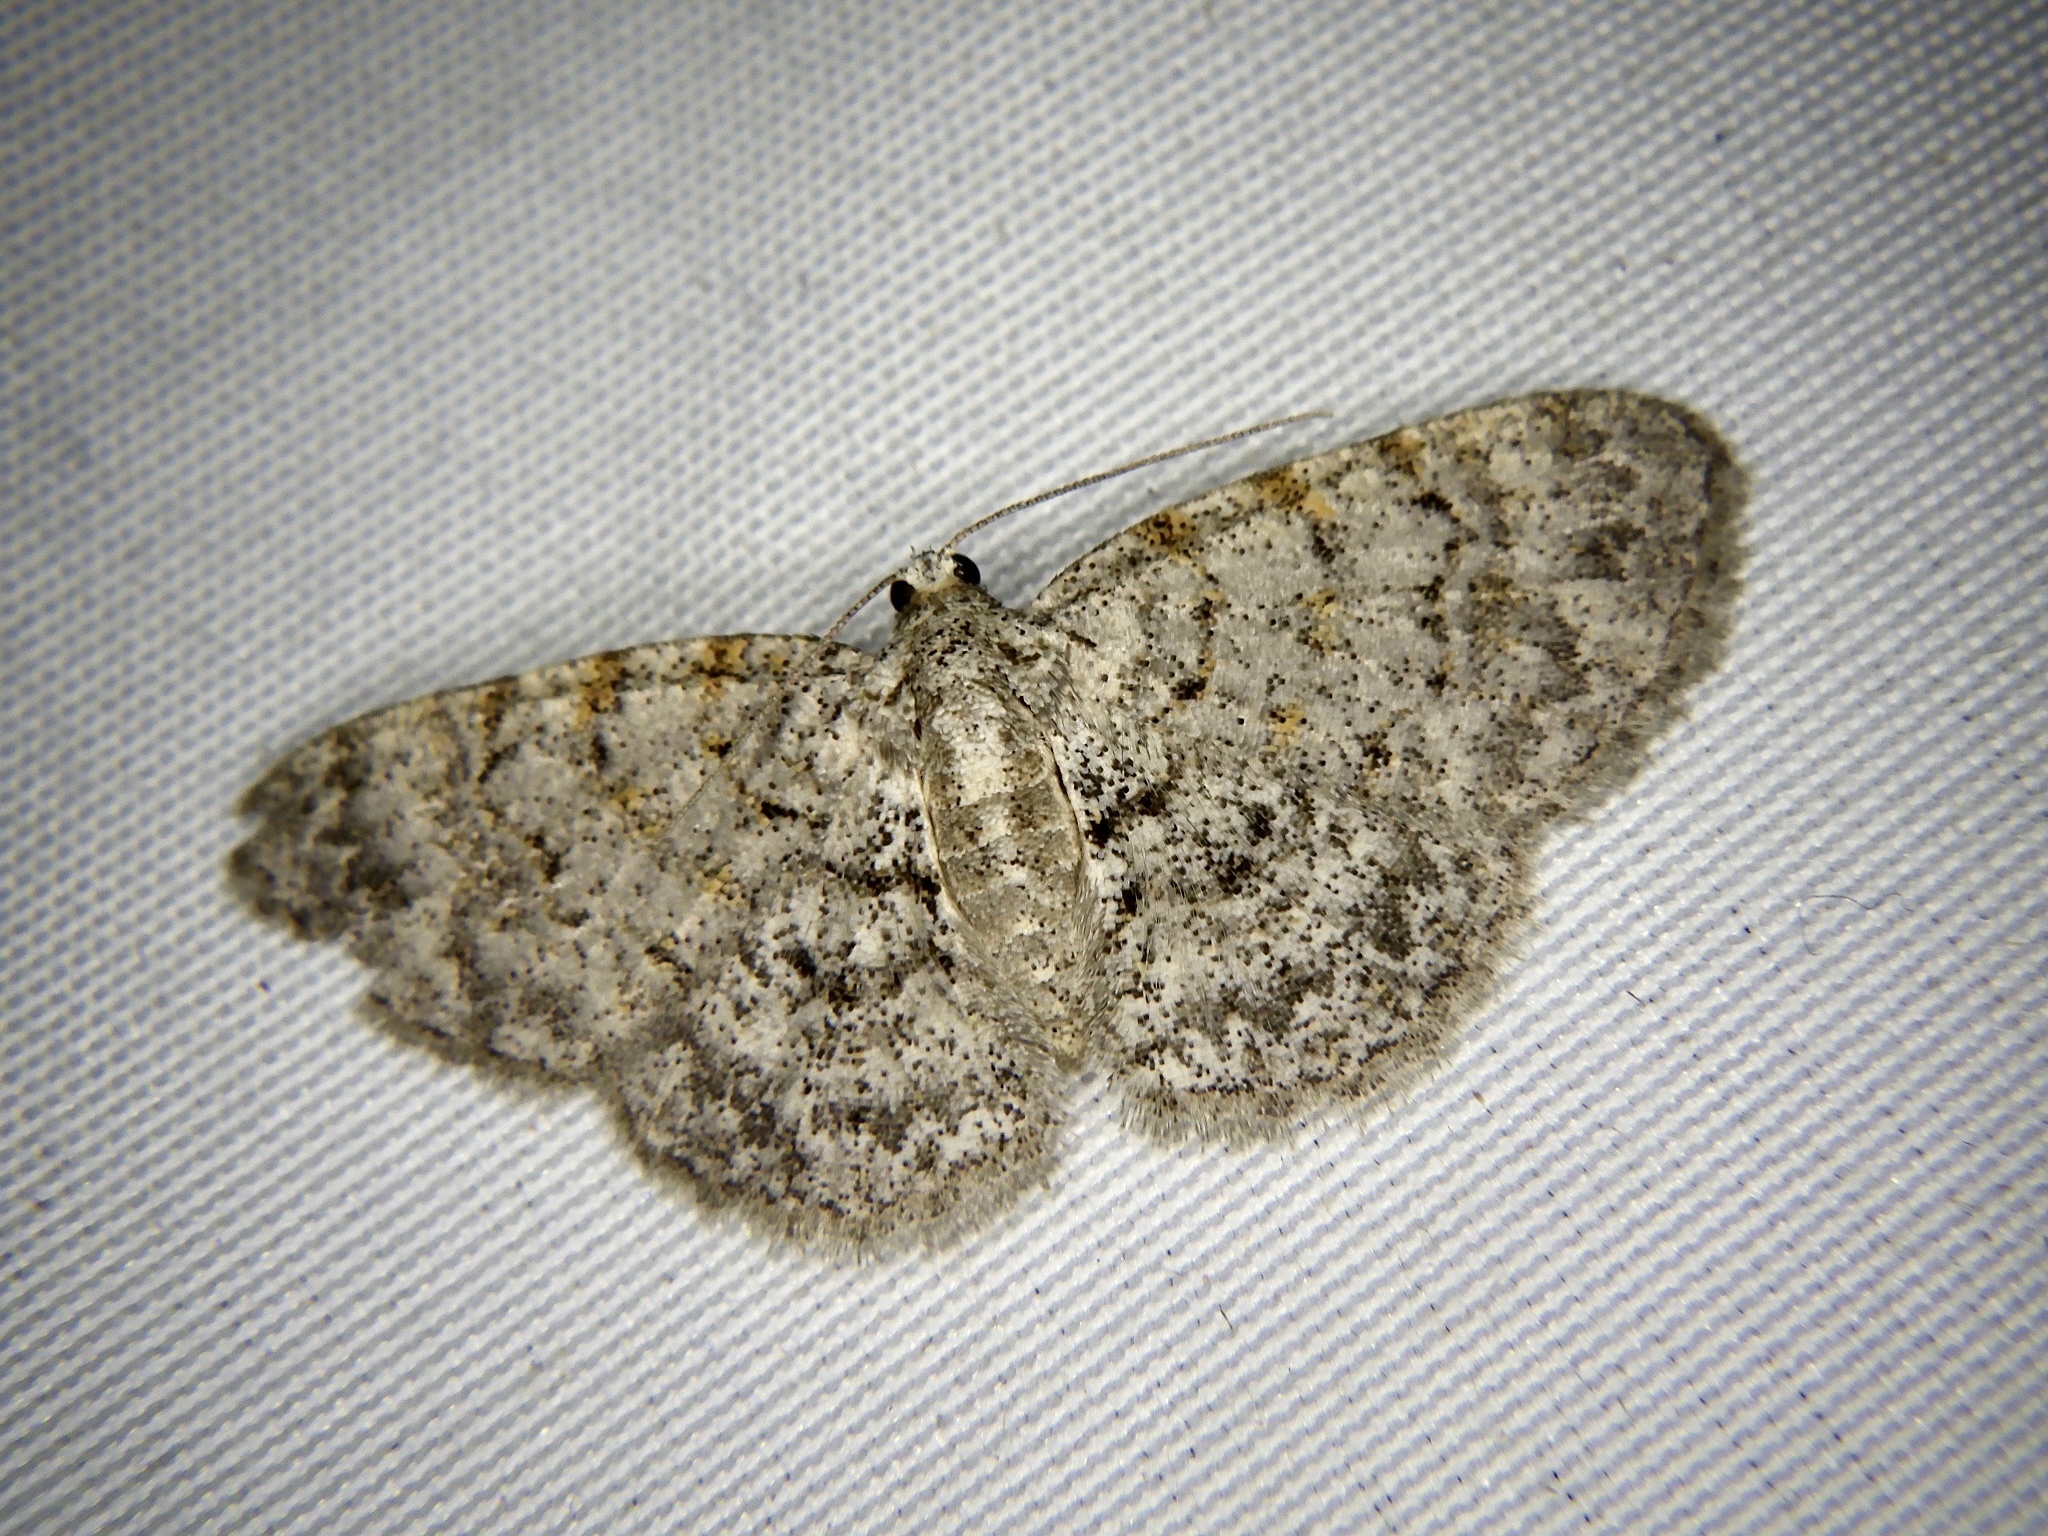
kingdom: Animalia
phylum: Arthropoda
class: Insecta
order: Lepidoptera
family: Geometridae
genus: Myrioblephara
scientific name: Myrioblephara
